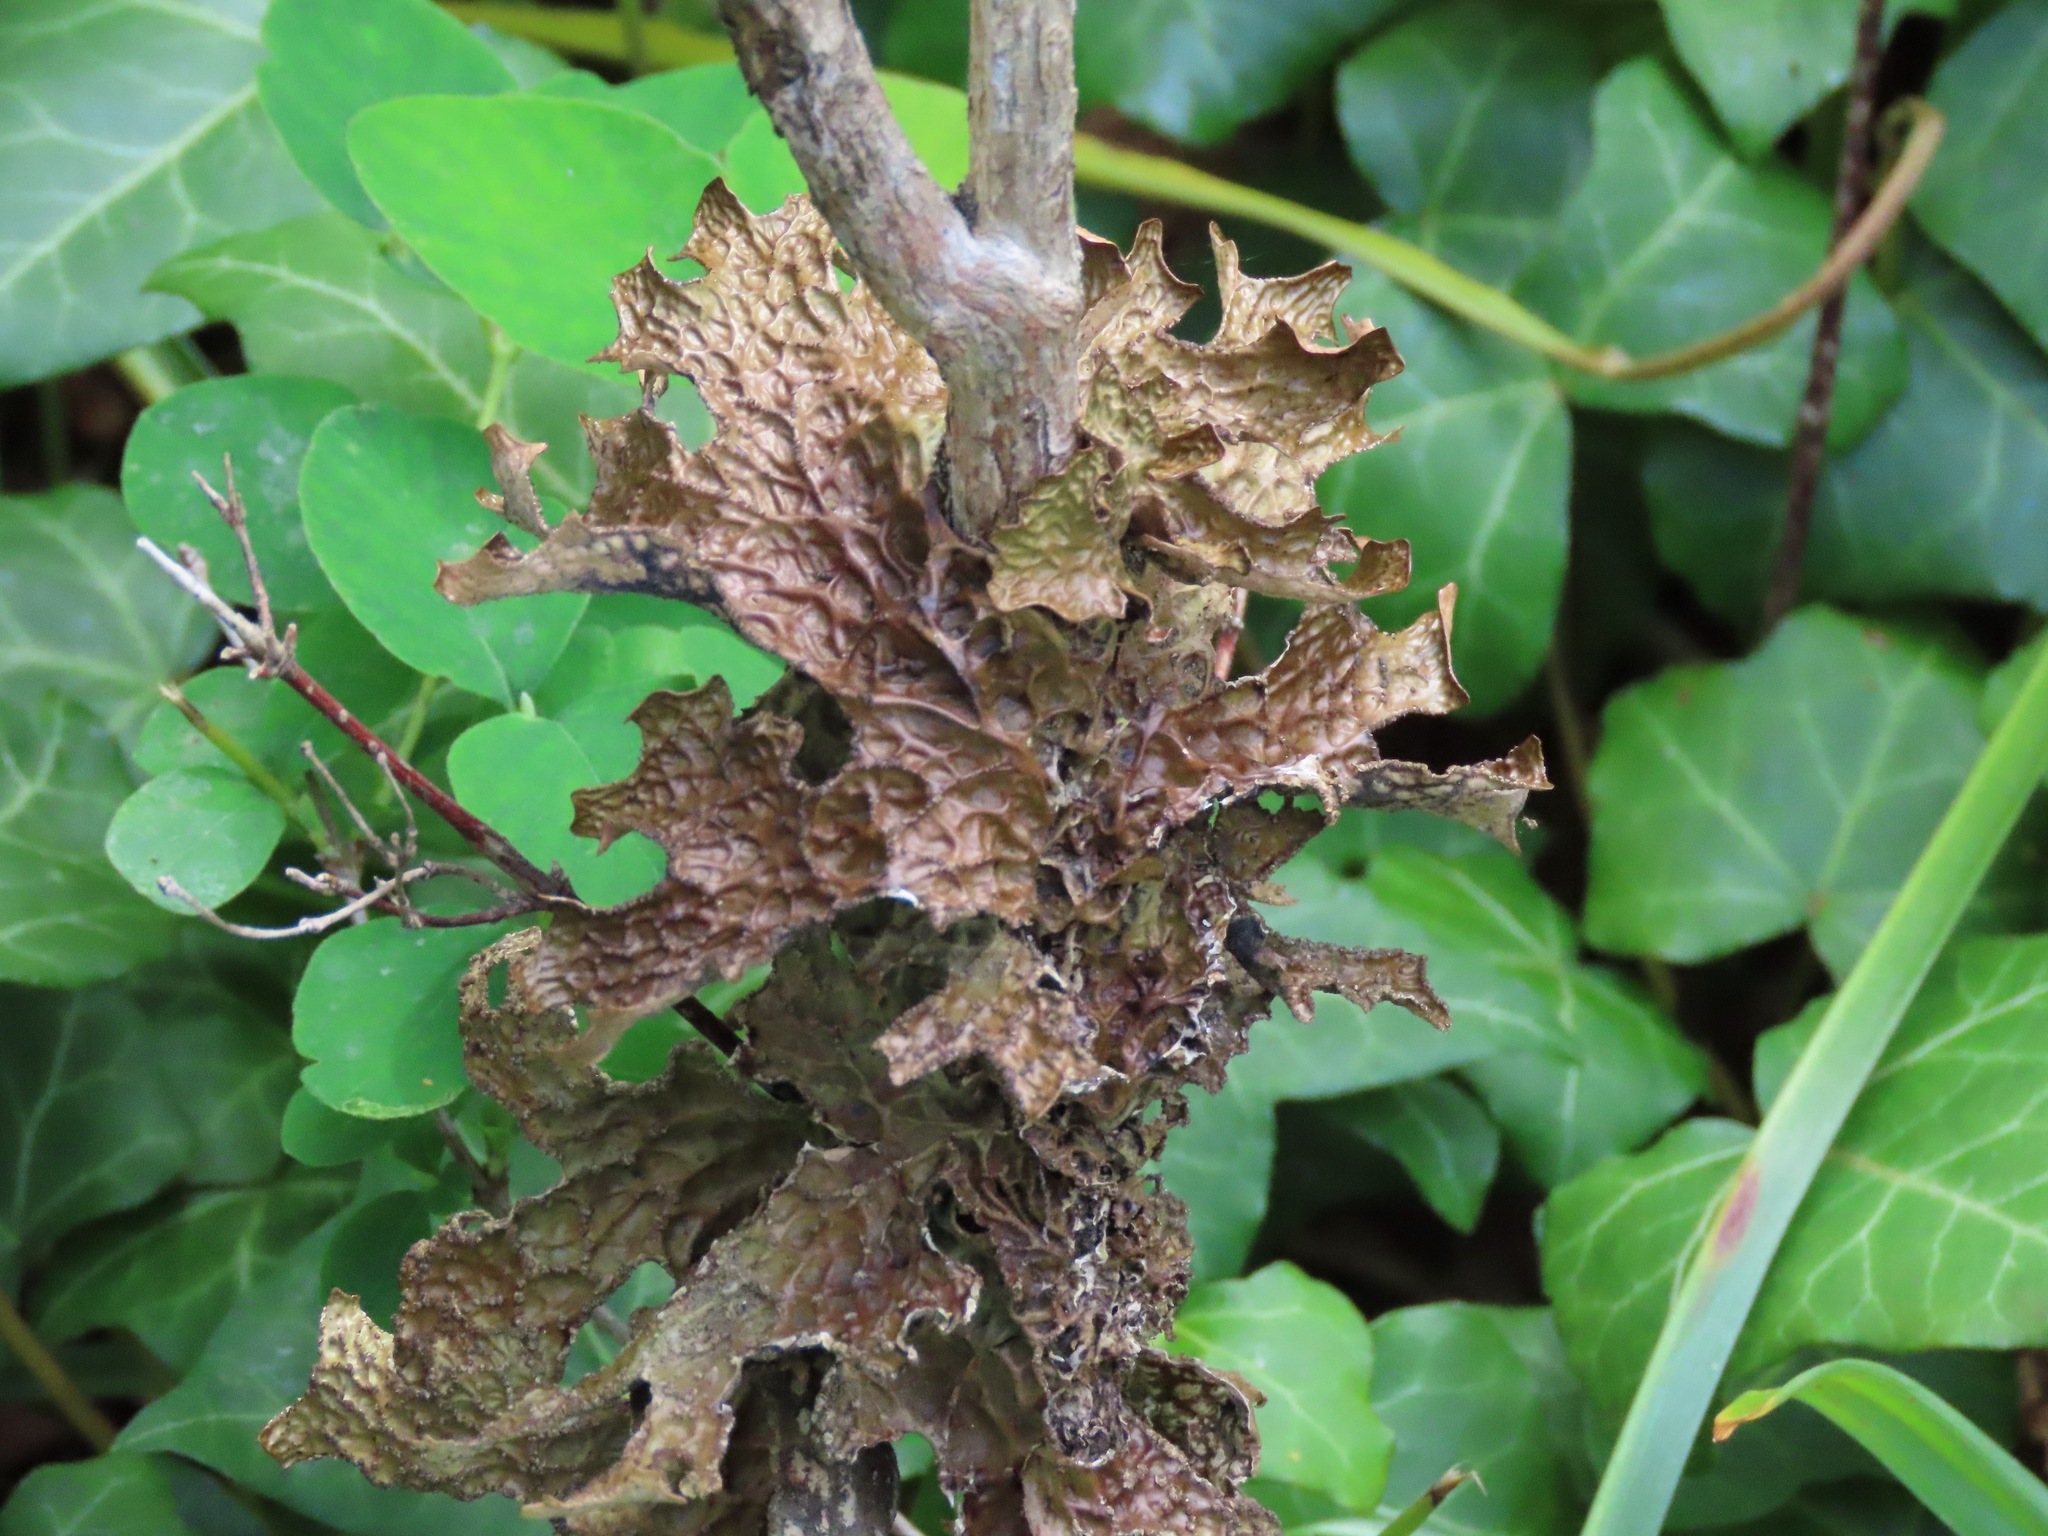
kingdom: Fungi
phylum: Ascomycota
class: Lecanoromycetes
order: Peltigerales
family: Lobariaceae
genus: Lobaria
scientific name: Lobaria pulmonaria
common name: Lungwort
